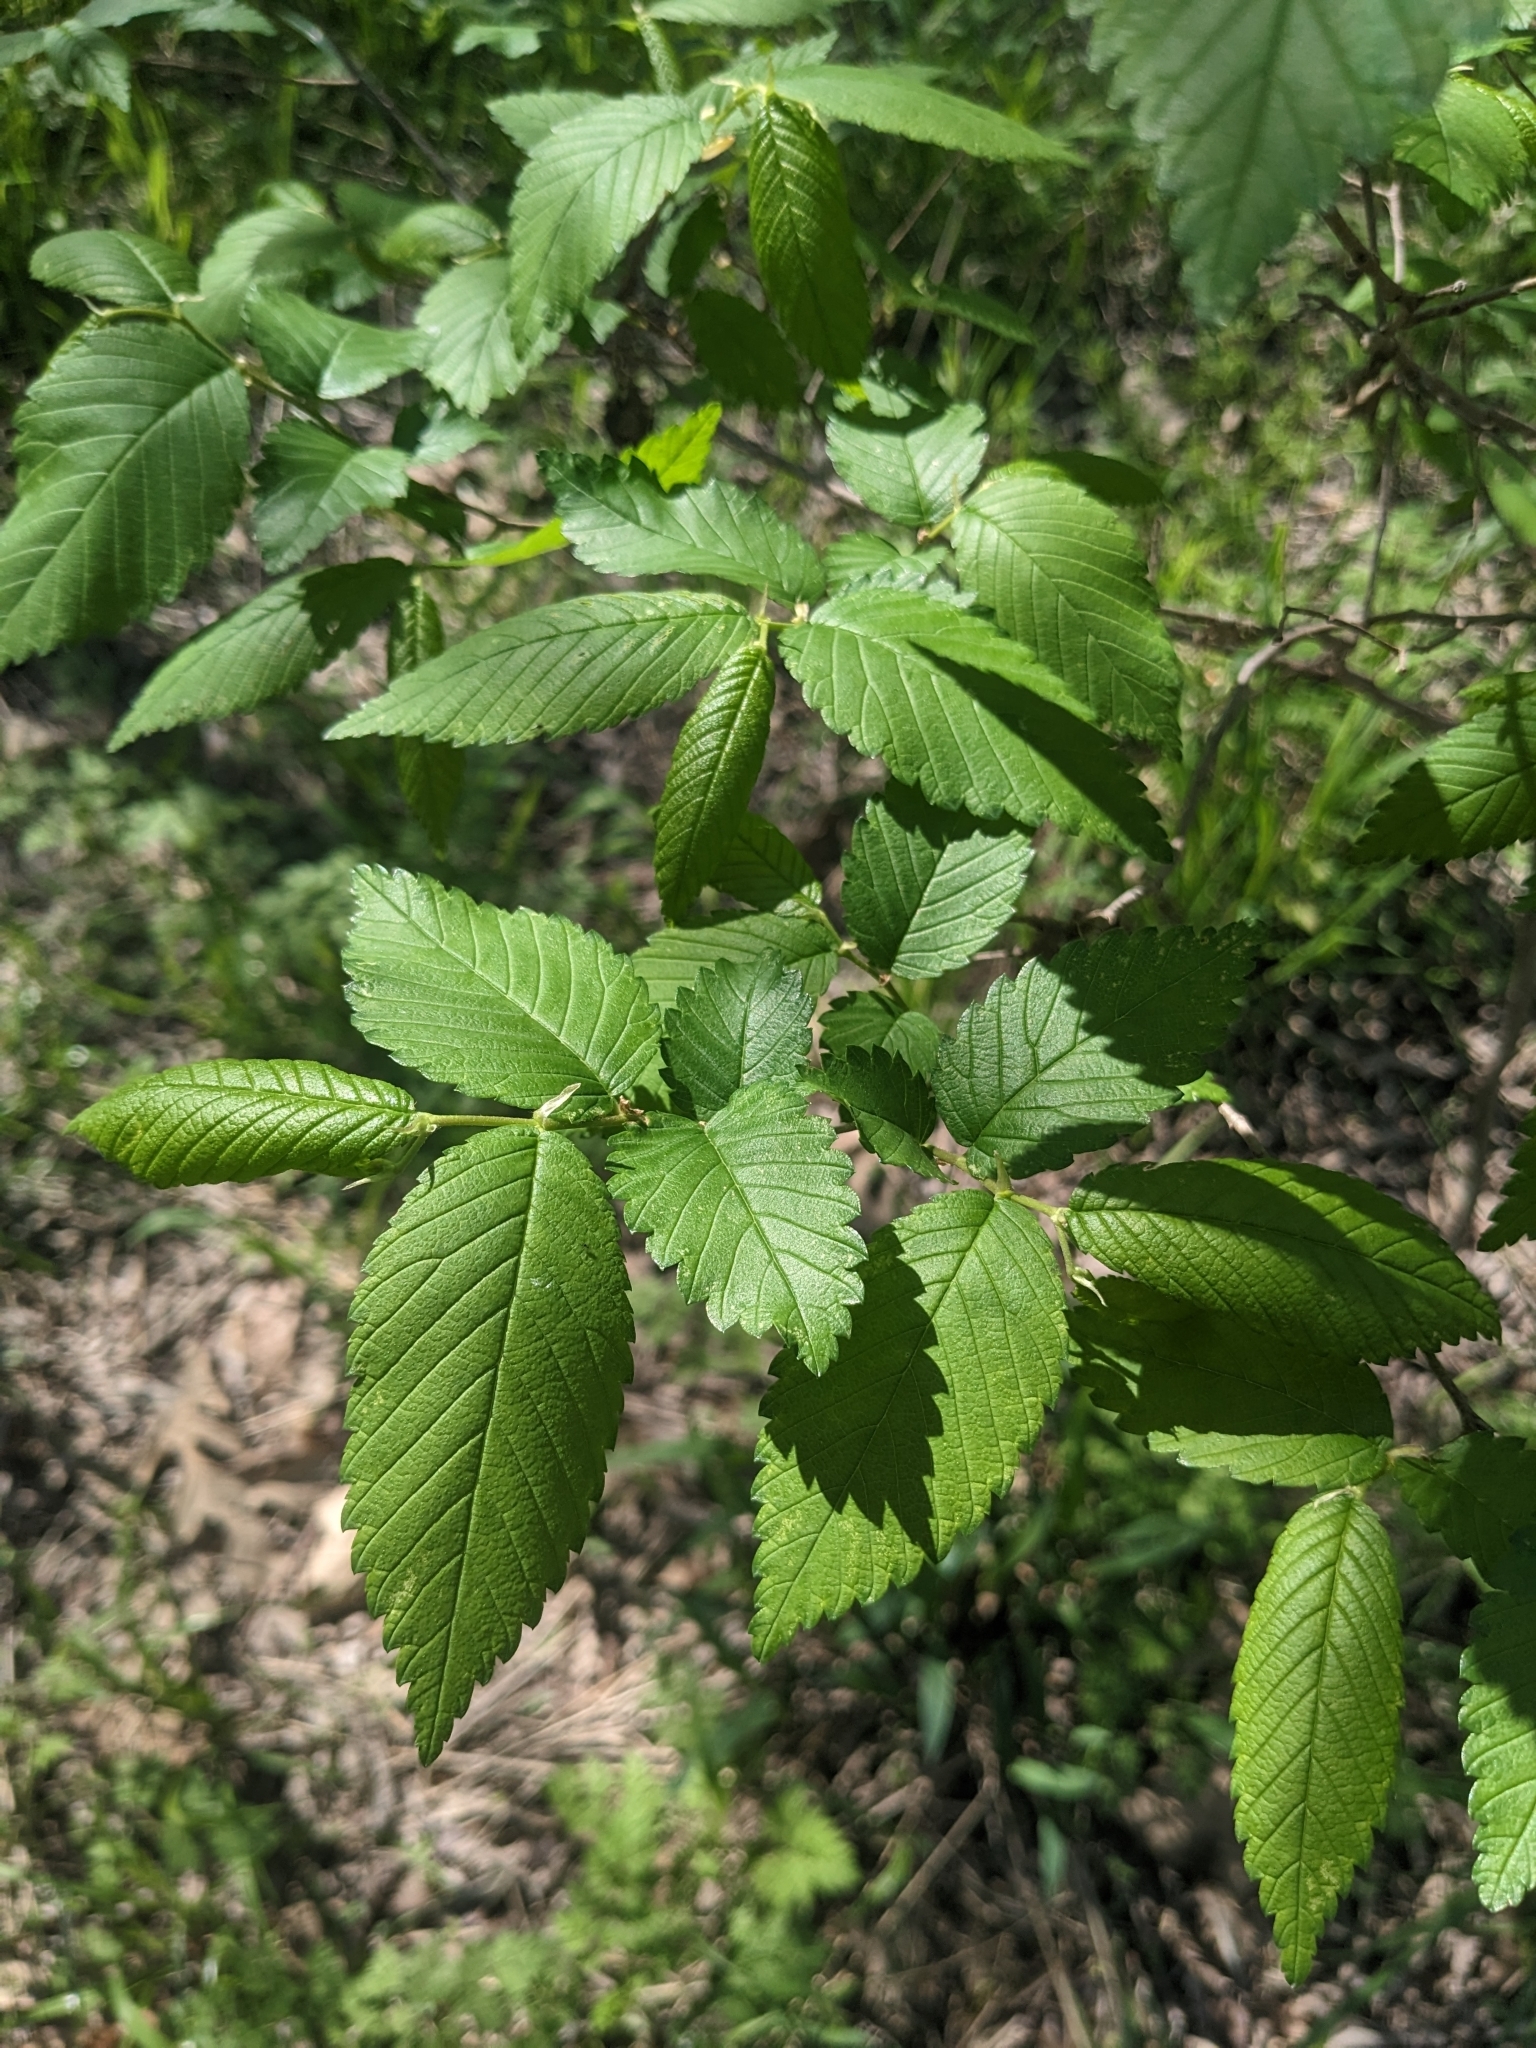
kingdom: Plantae
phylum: Tracheophyta
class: Magnoliopsida
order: Rosales
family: Ulmaceae
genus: Ulmus
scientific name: Ulmus americana
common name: American elm
